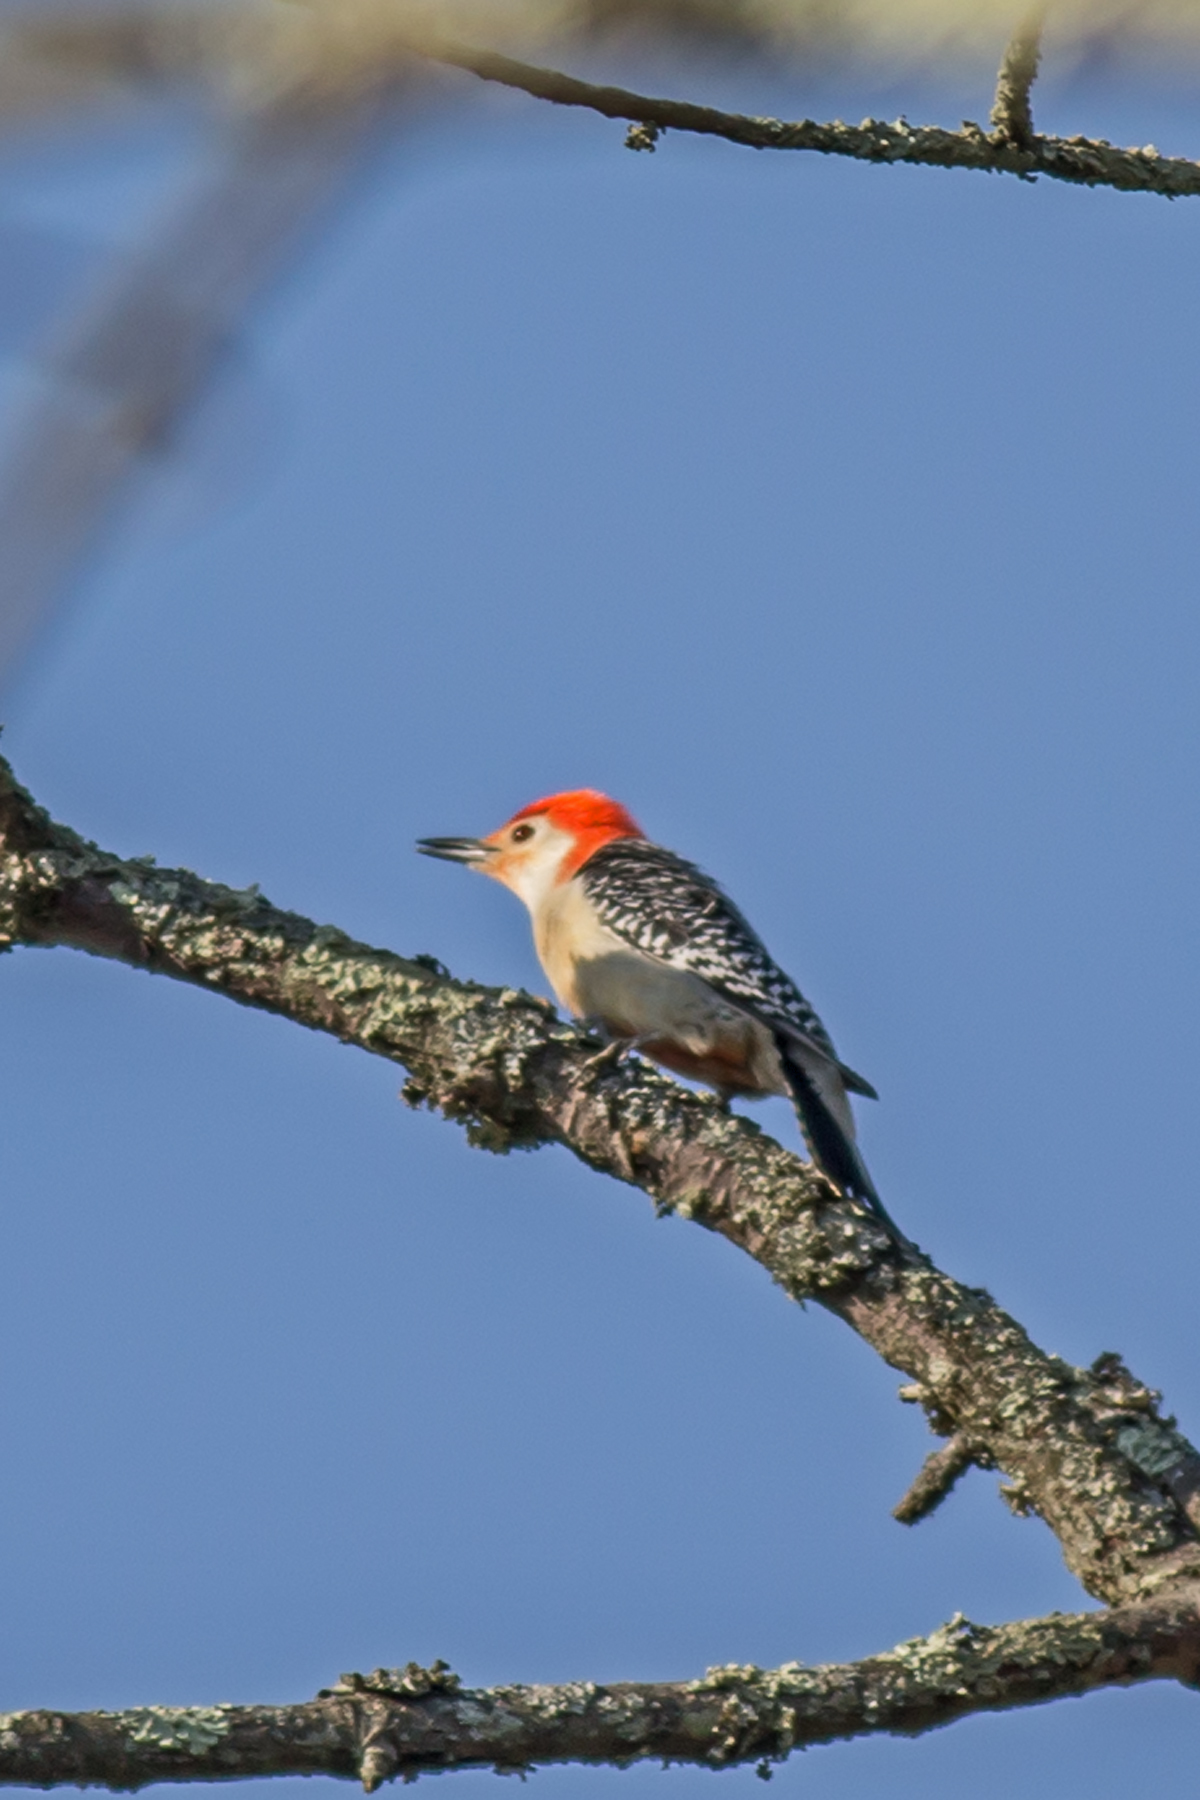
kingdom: Animalia
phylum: Chordata
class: Aves
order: Piciformes
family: Picidae
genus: Melanerpes
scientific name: Melanerpes carolinus
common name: Red-bellied woodpecker
